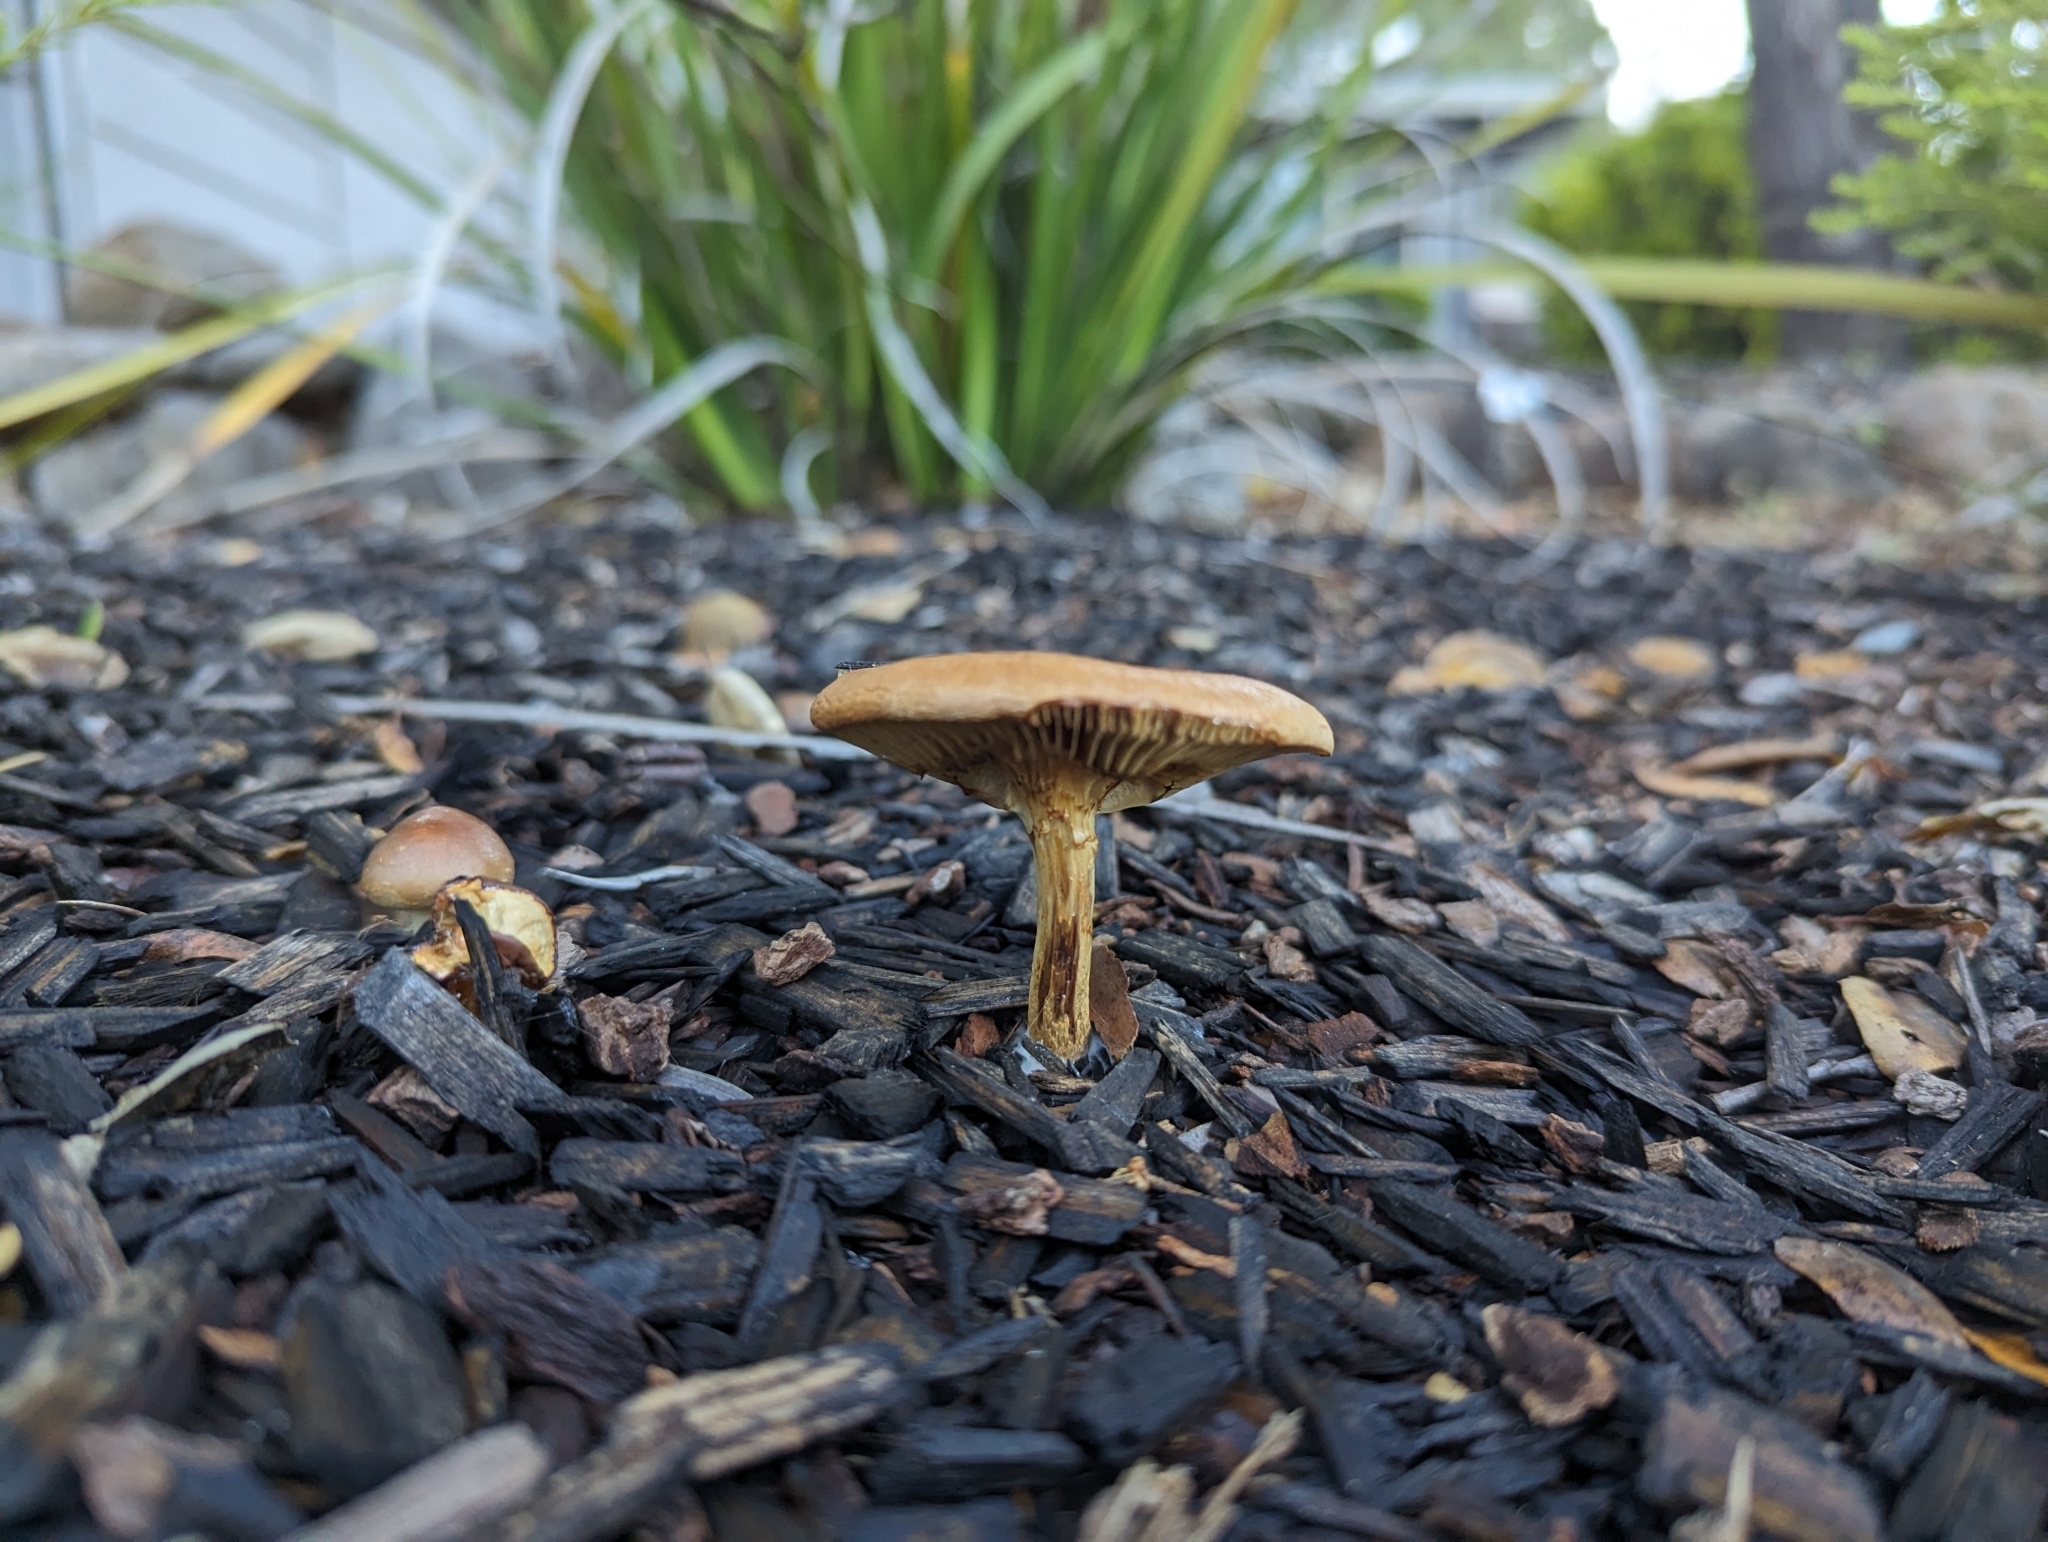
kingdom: Fungi
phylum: Basidiomycota
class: Agaricomycetes
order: Agaricales
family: Strophariaceae
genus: Pholiota
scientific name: Pholiota spumosa
